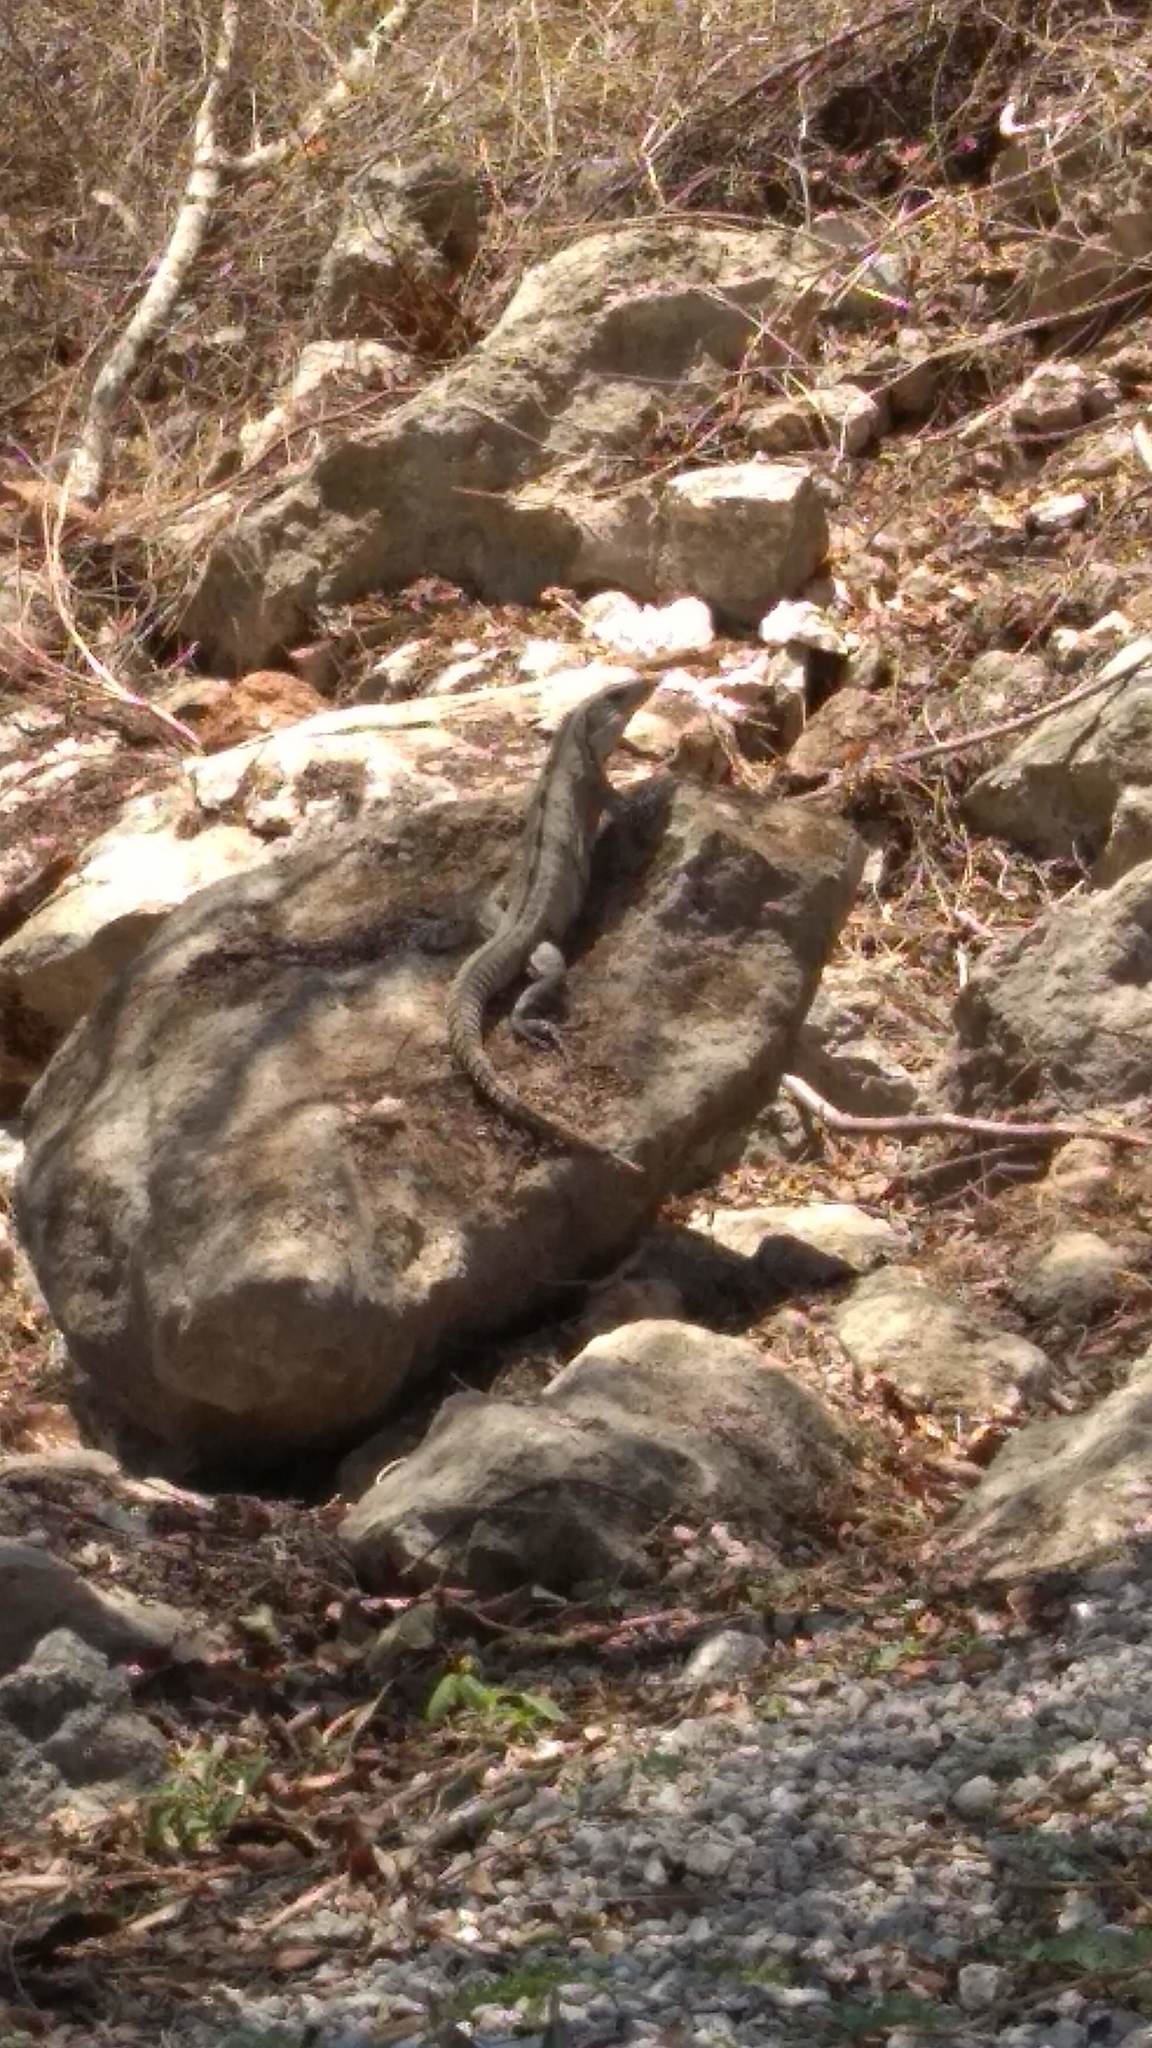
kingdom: Animalia
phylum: Chordata
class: Squamata
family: Iguanidae
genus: Ctenosaura
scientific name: Ctenosaura similis
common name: Black spiny-tailed iguana
